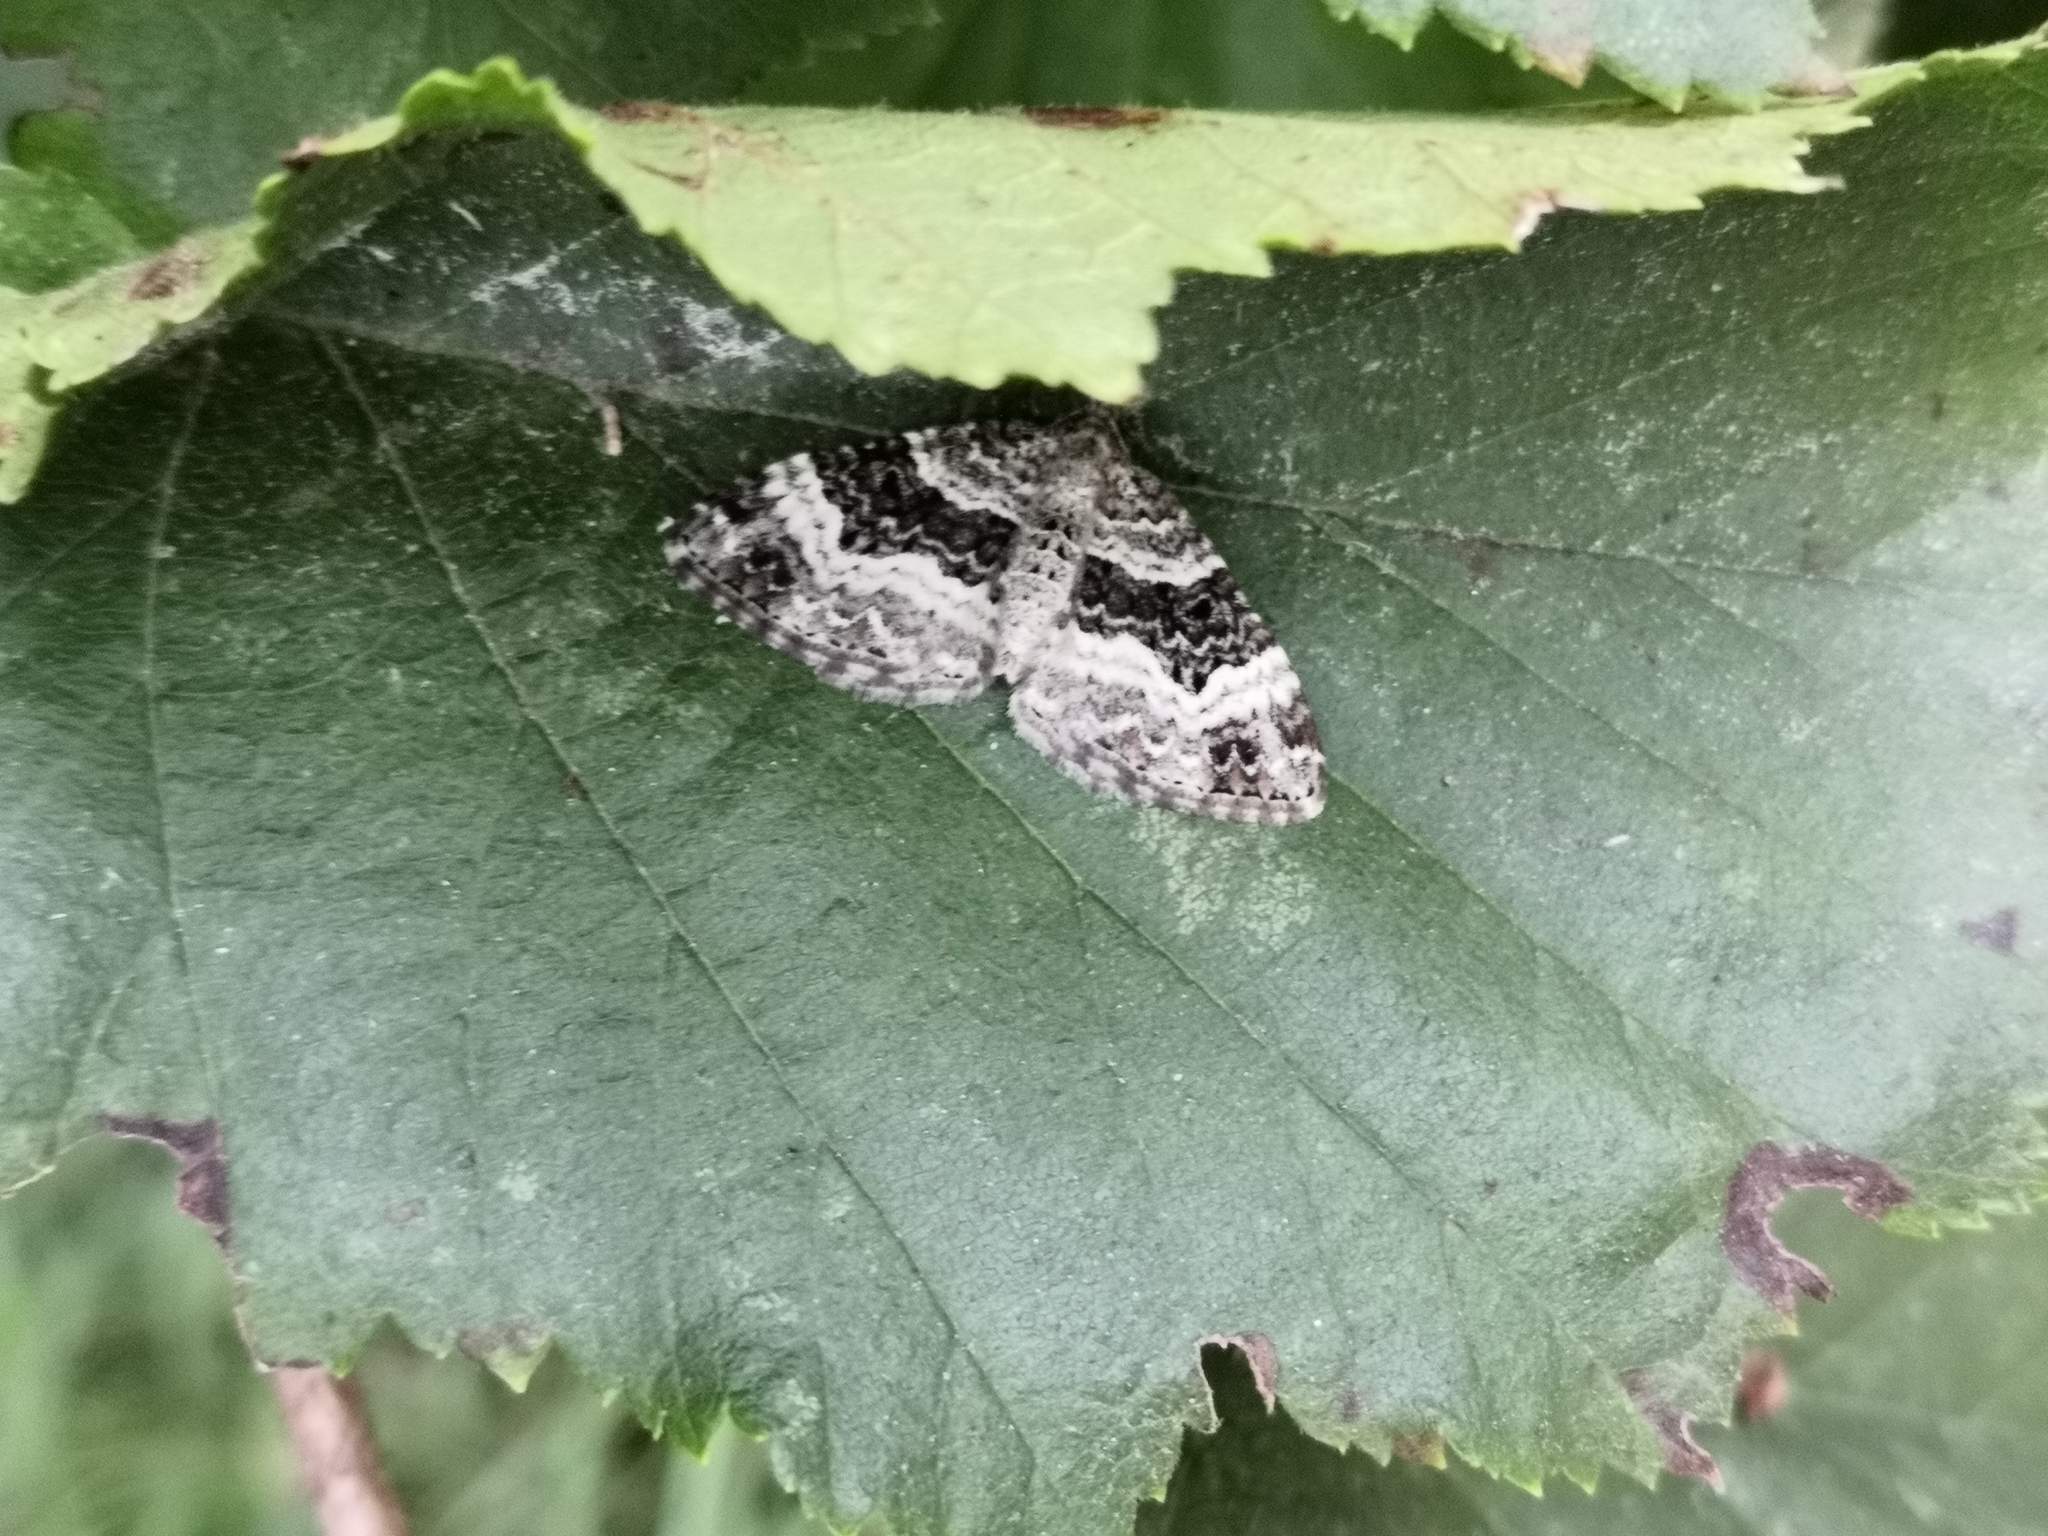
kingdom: Animalia
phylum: Arthropoda
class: Insecta
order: Lepidoptera
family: Geometridae
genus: Epirrhoe
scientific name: Epirrhoe alternata
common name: Common carpet
